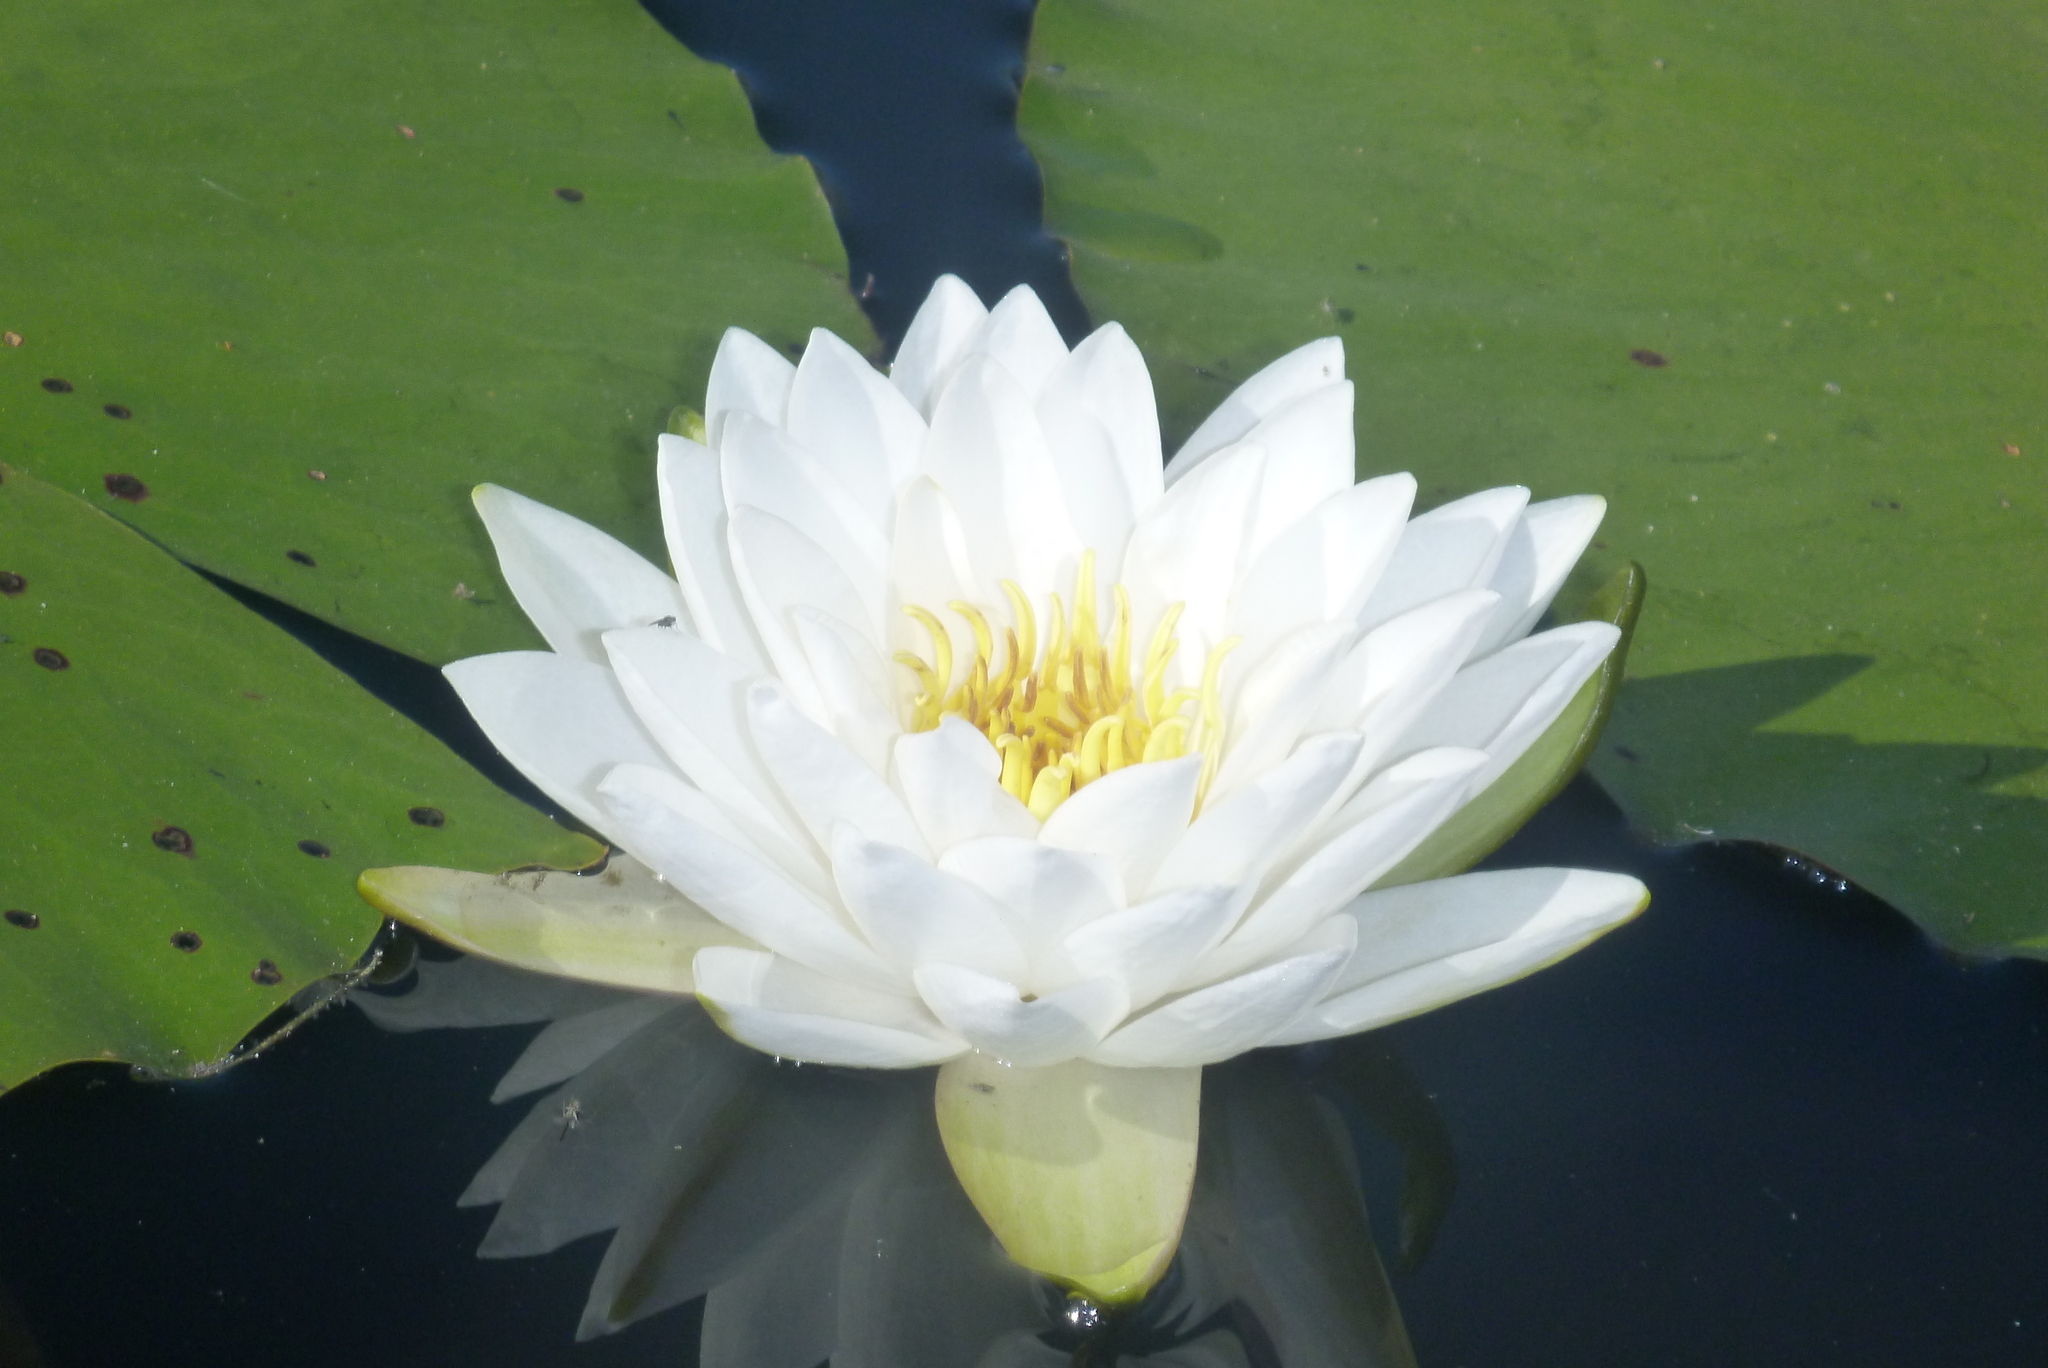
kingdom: Plantae
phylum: Tracheophyta
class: Magnoliopsida
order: Nymphaeales
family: Nymphaeaceae
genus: Nymphaea
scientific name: Nymphaea odorata
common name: Fragrant water-lily
